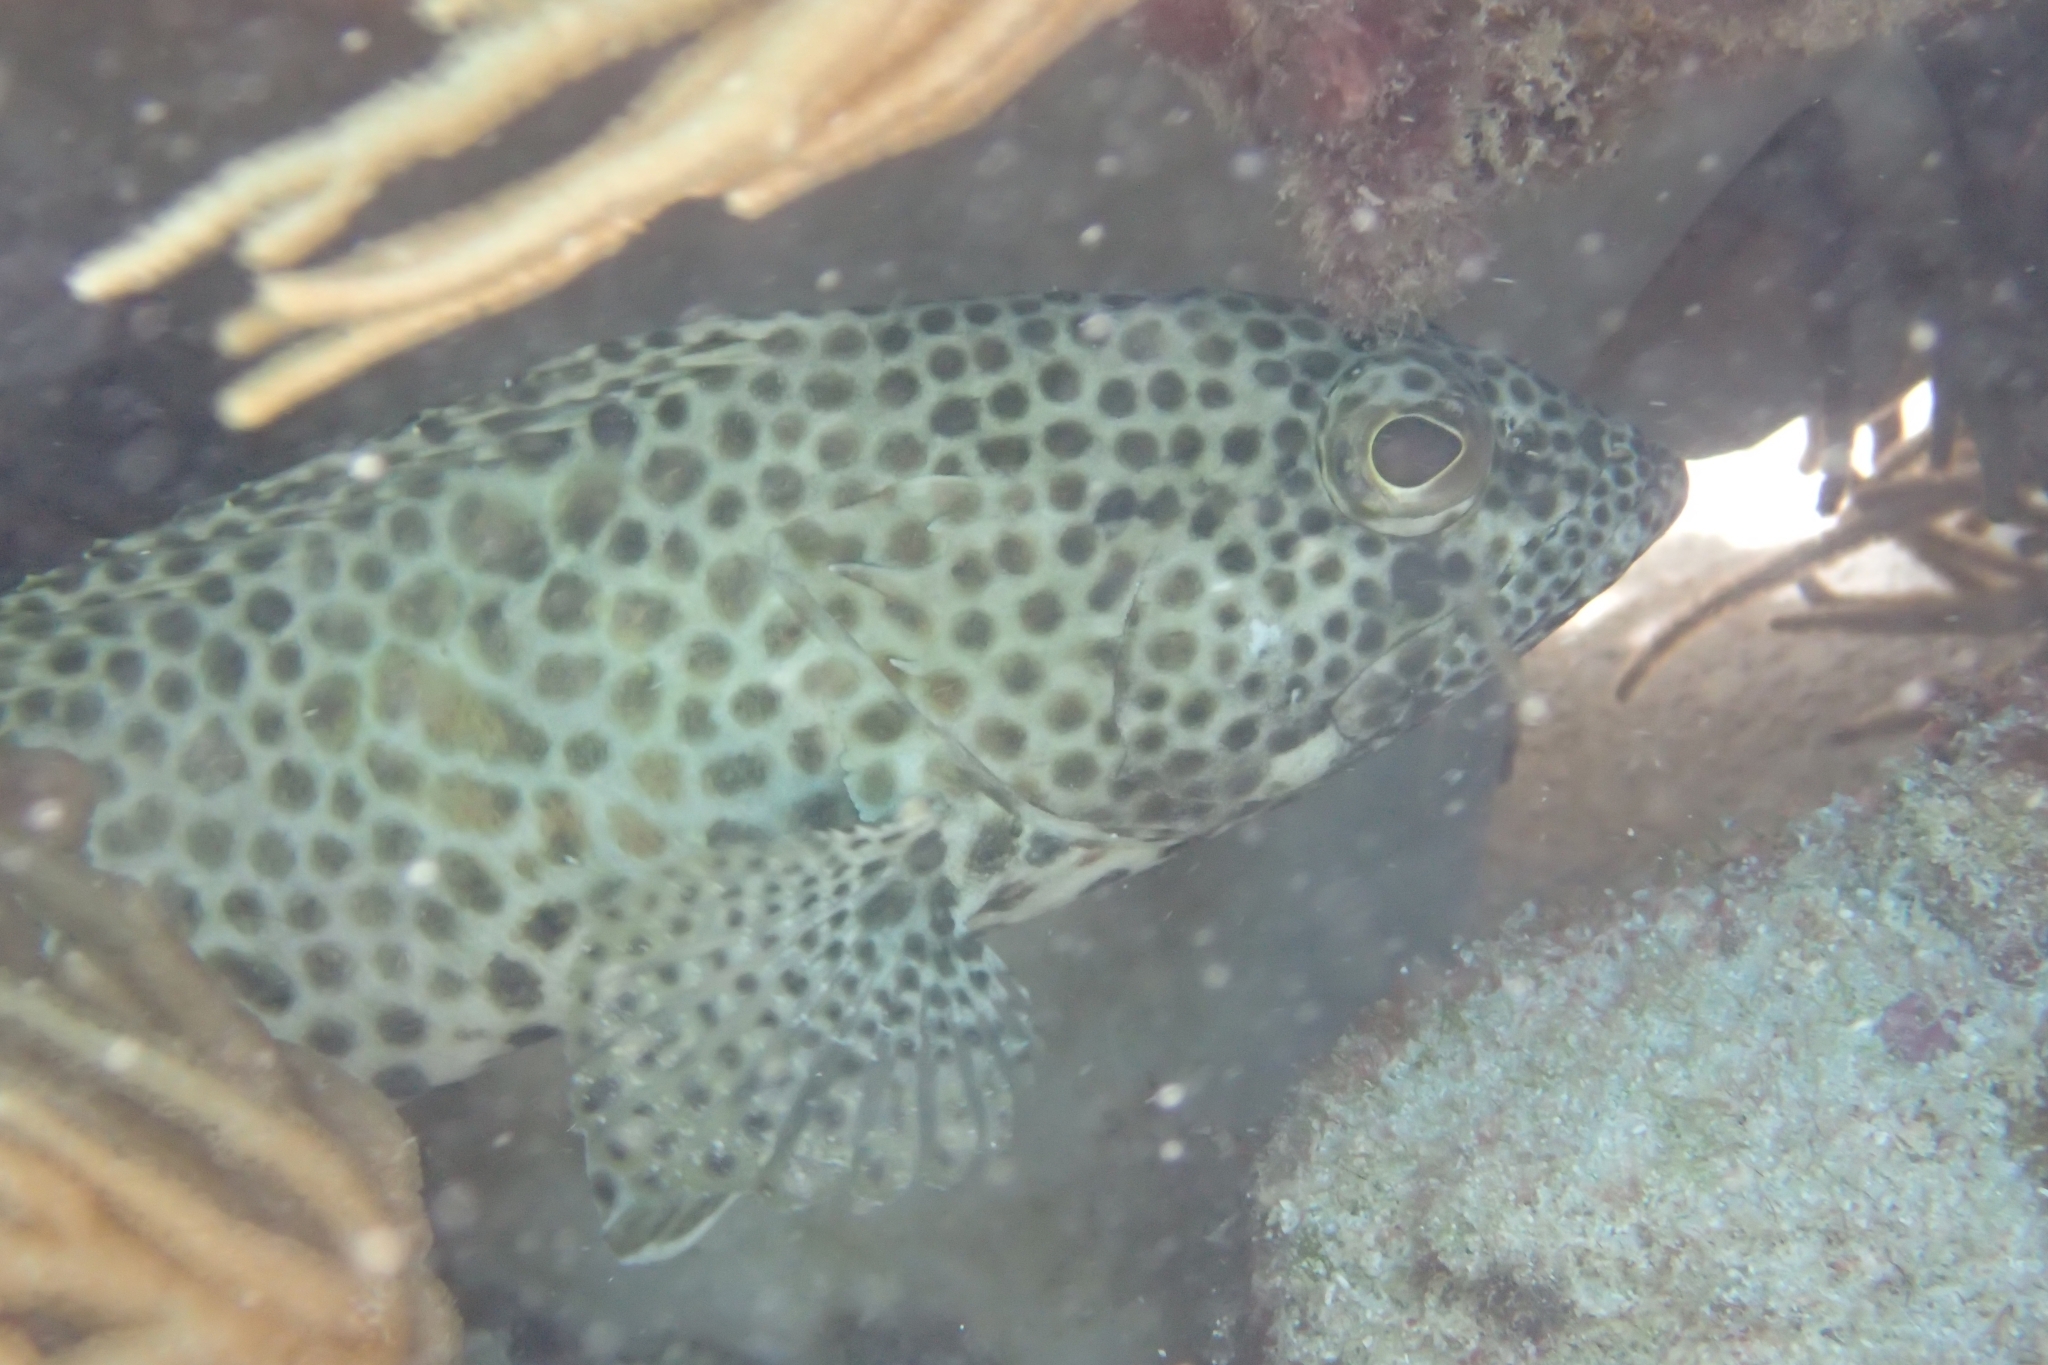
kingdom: Animalia
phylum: Chordata
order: Perciformes
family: Serranidae
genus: Epinephelus
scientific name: Epinephelus merra
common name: Honeycomb grouper
